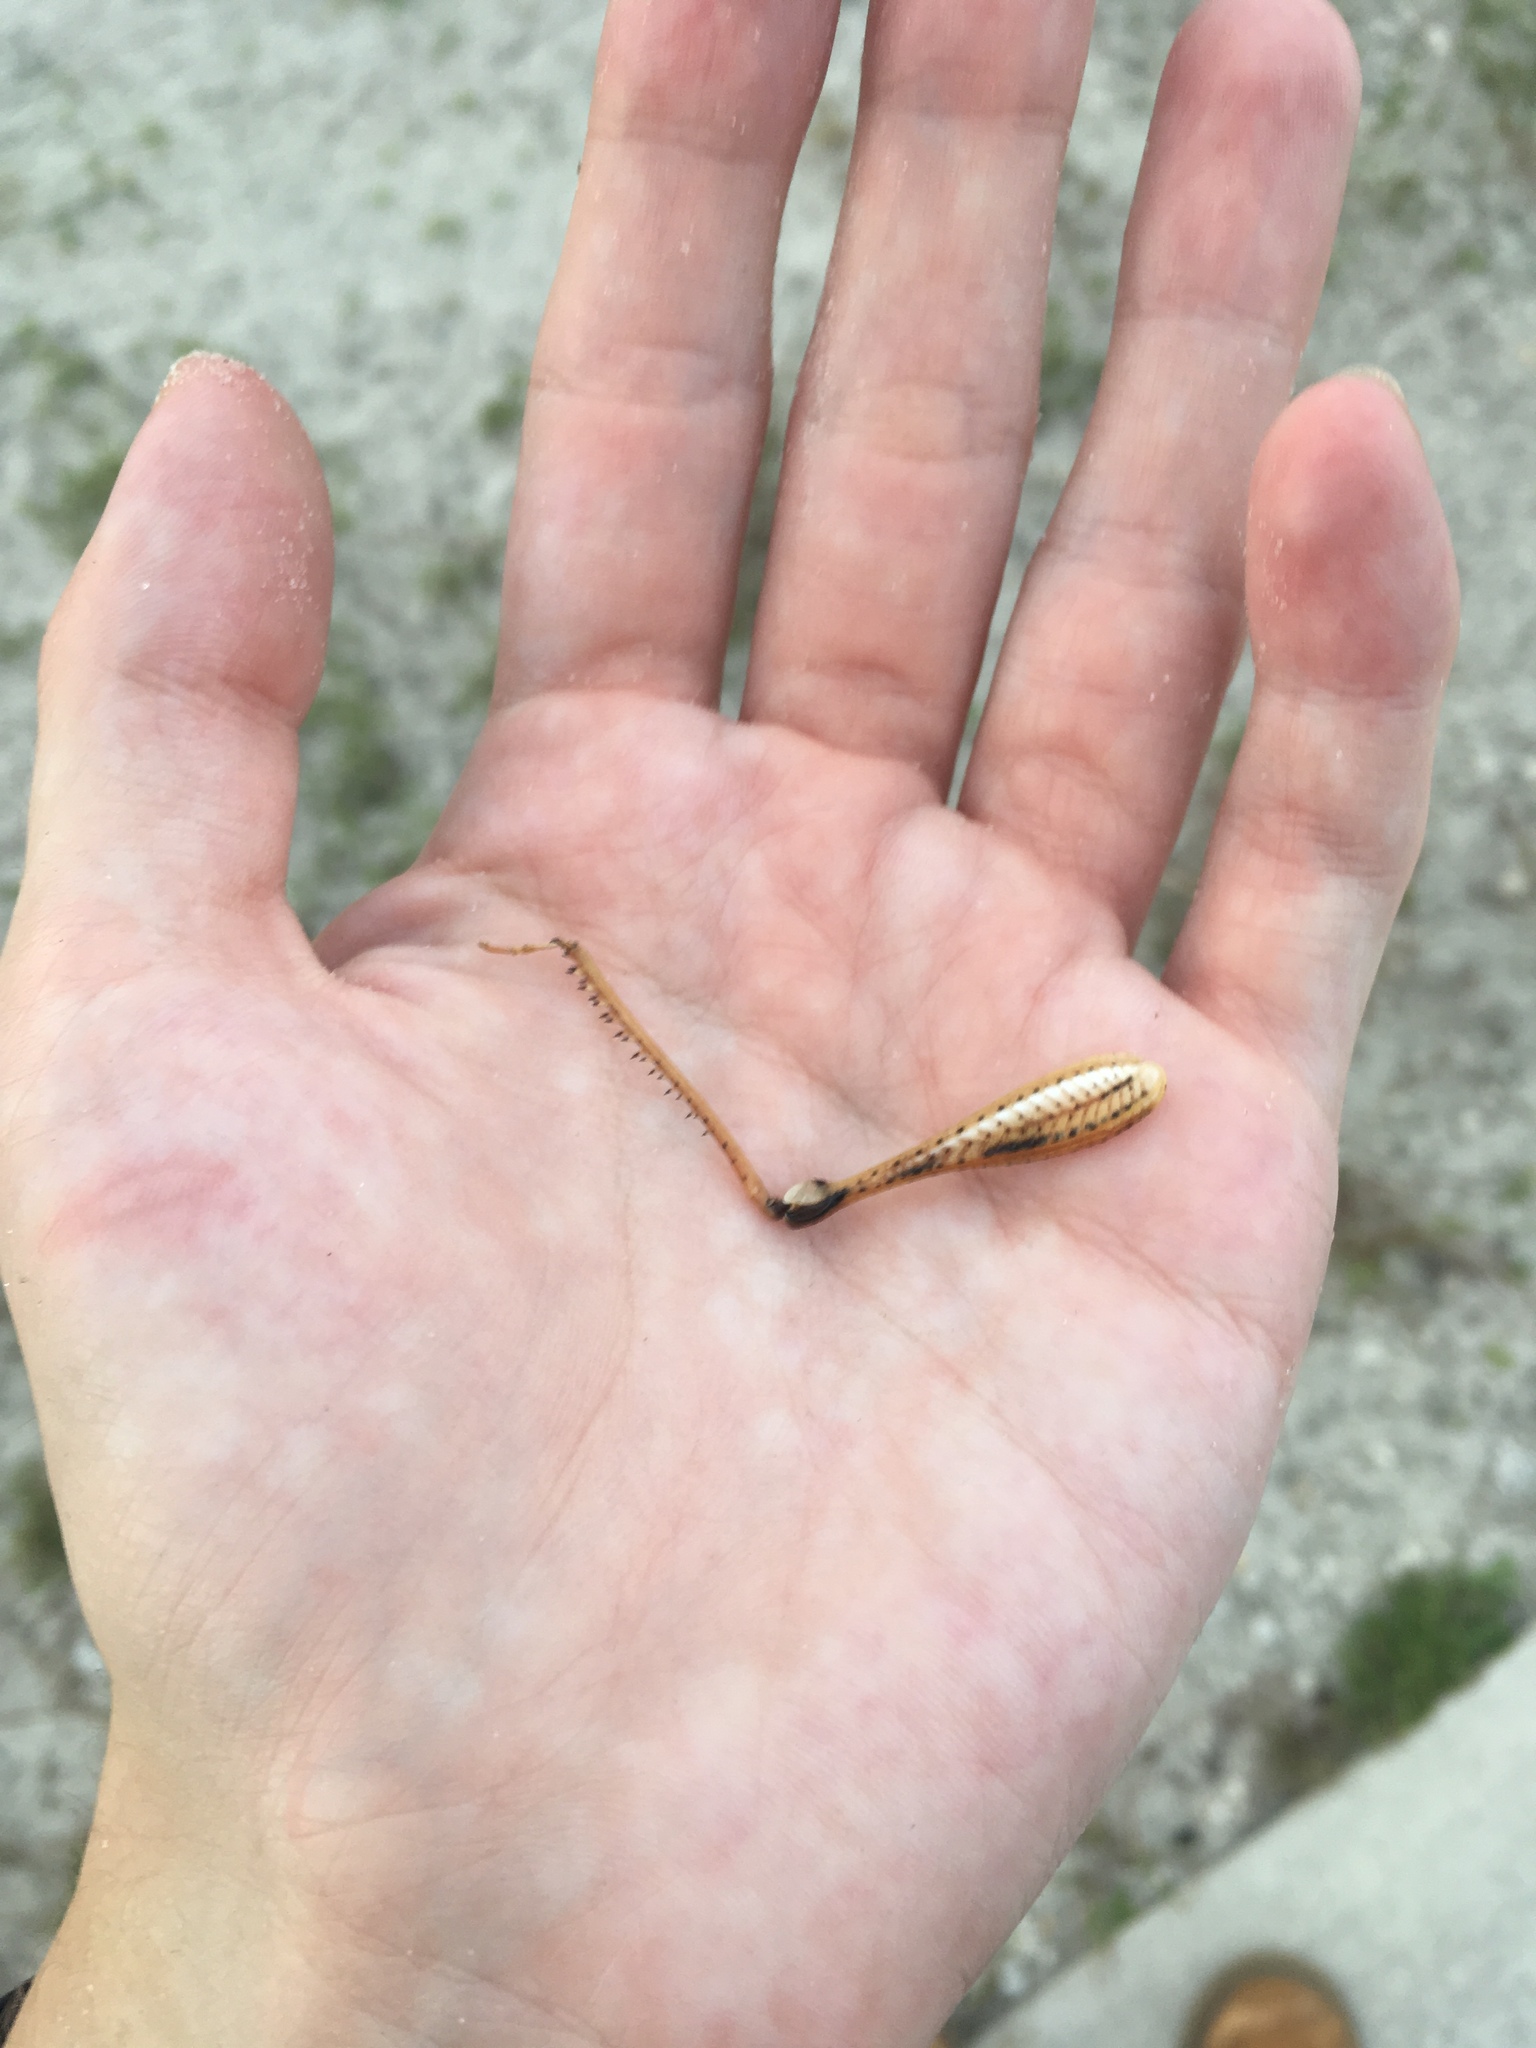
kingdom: Animalia
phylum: Arthropoda
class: Insecta
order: Orthoptera
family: Acrididae
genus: Schistocerca
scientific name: Schistocerca americana
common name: American bird locust
